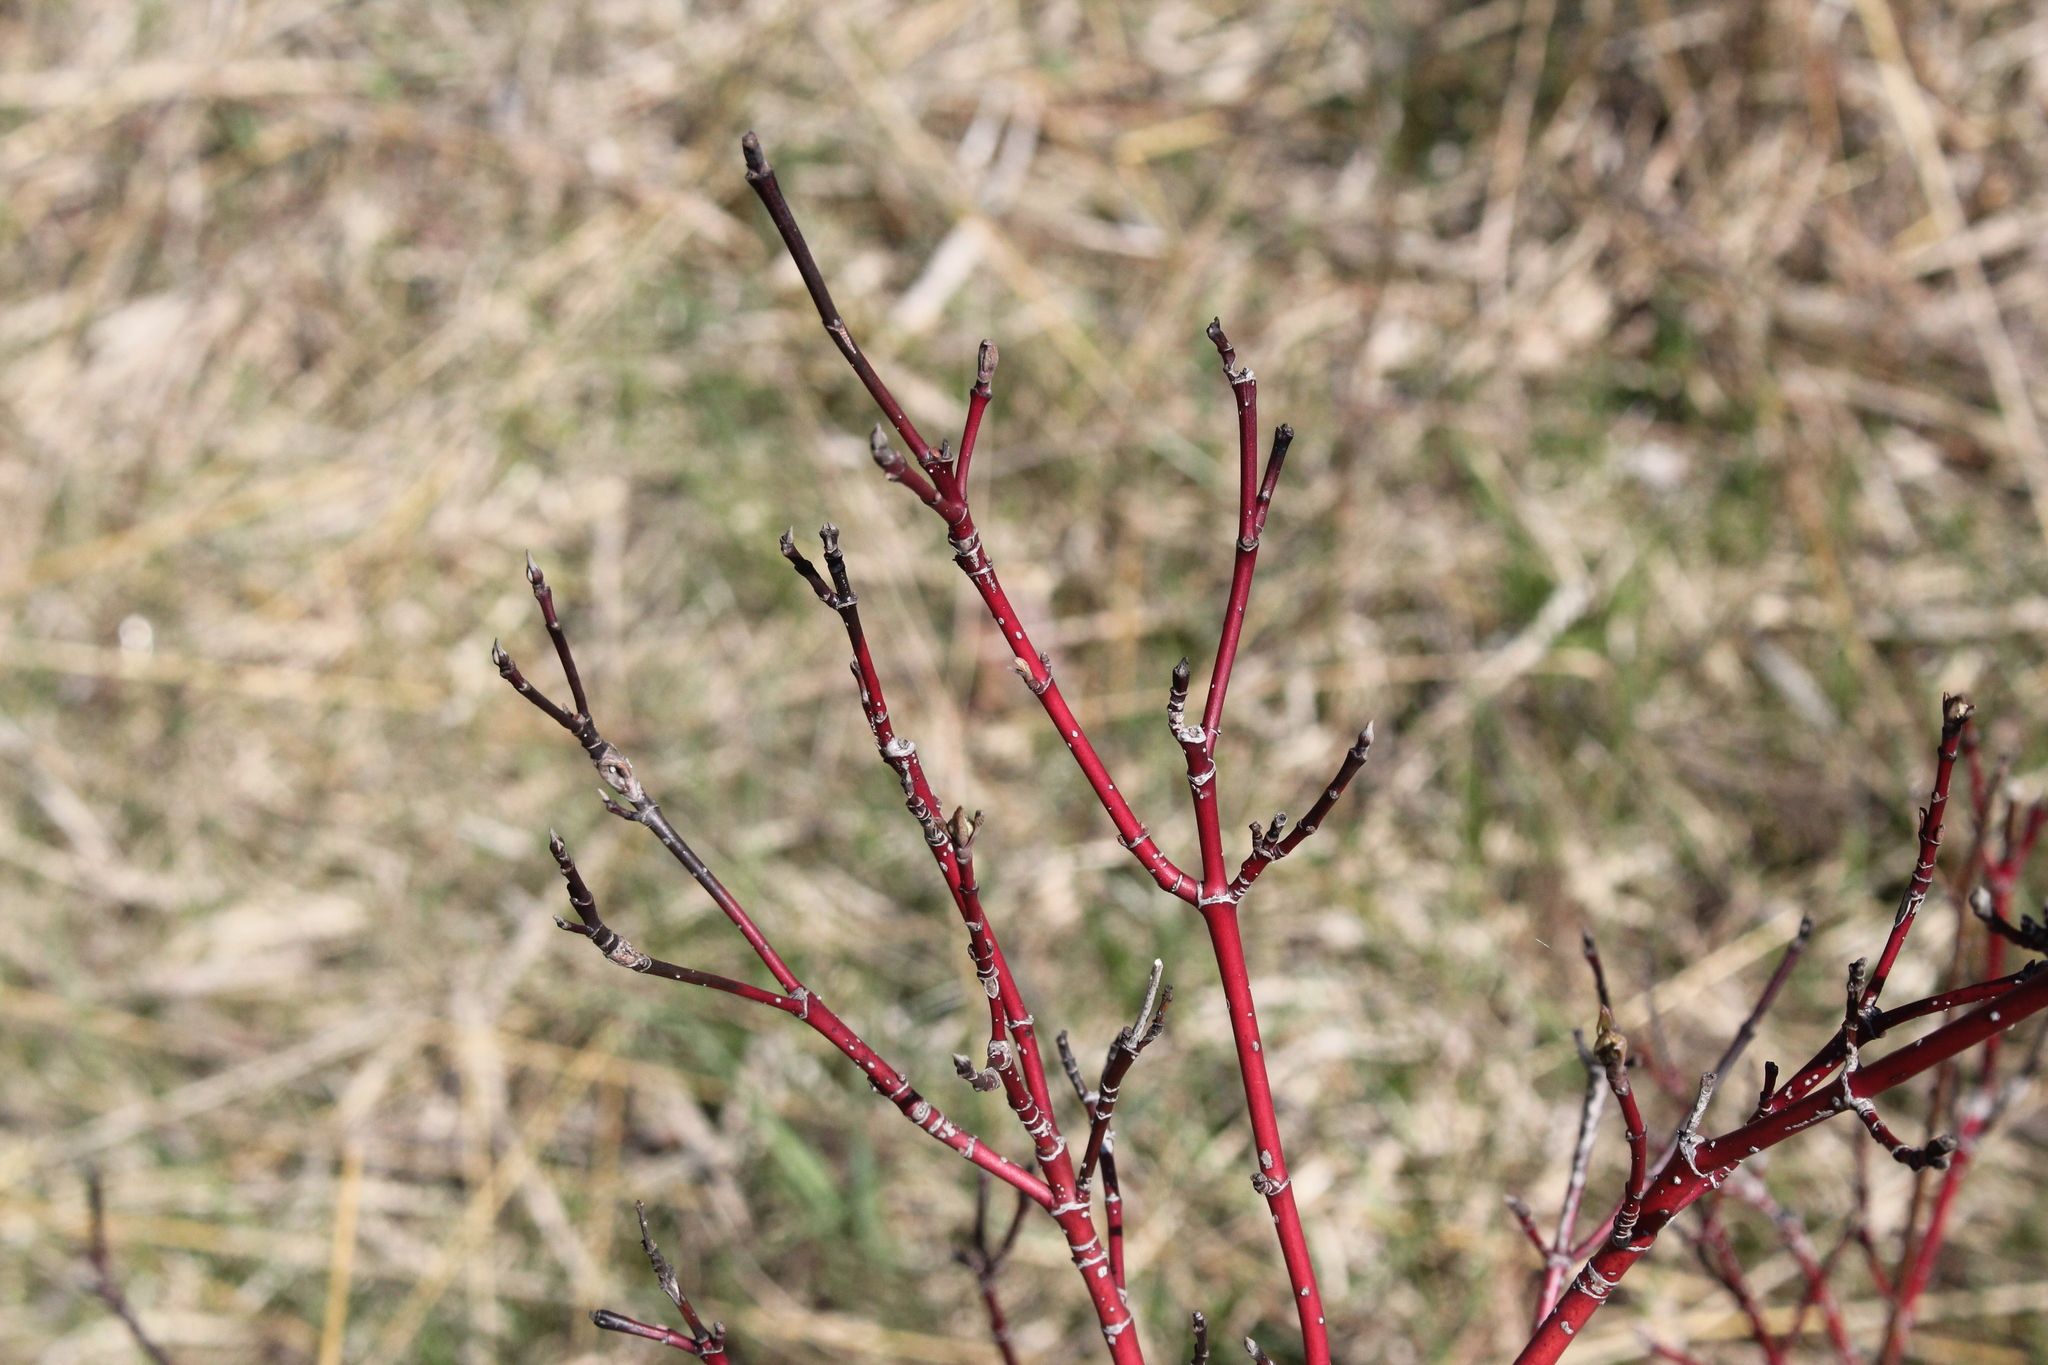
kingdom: Plantae
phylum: Tracheophyta
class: Magnoliopsida
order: Cornales
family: Cornaceae
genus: Cornus
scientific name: Cornus sericea
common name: Red-osier dogwood
